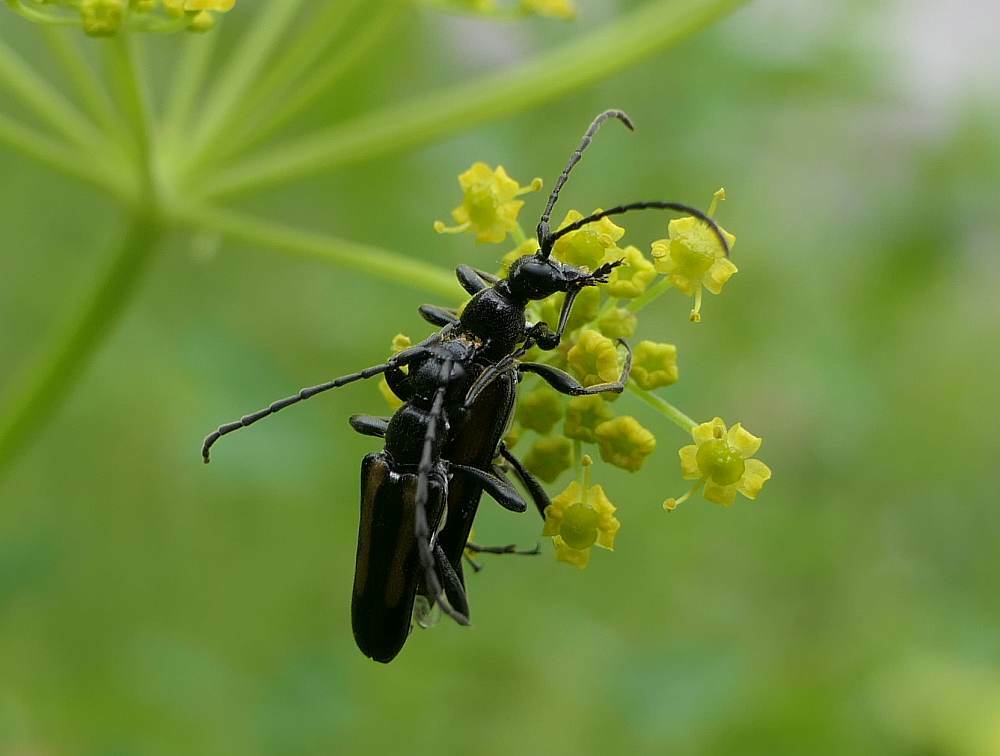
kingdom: Animalia
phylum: Arthropoda
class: Insecta
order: Coleoptera
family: Cerambycidae
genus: Strangalepta
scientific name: Strangalepta abbreviata
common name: Strangalepta flower longhorn beetle
